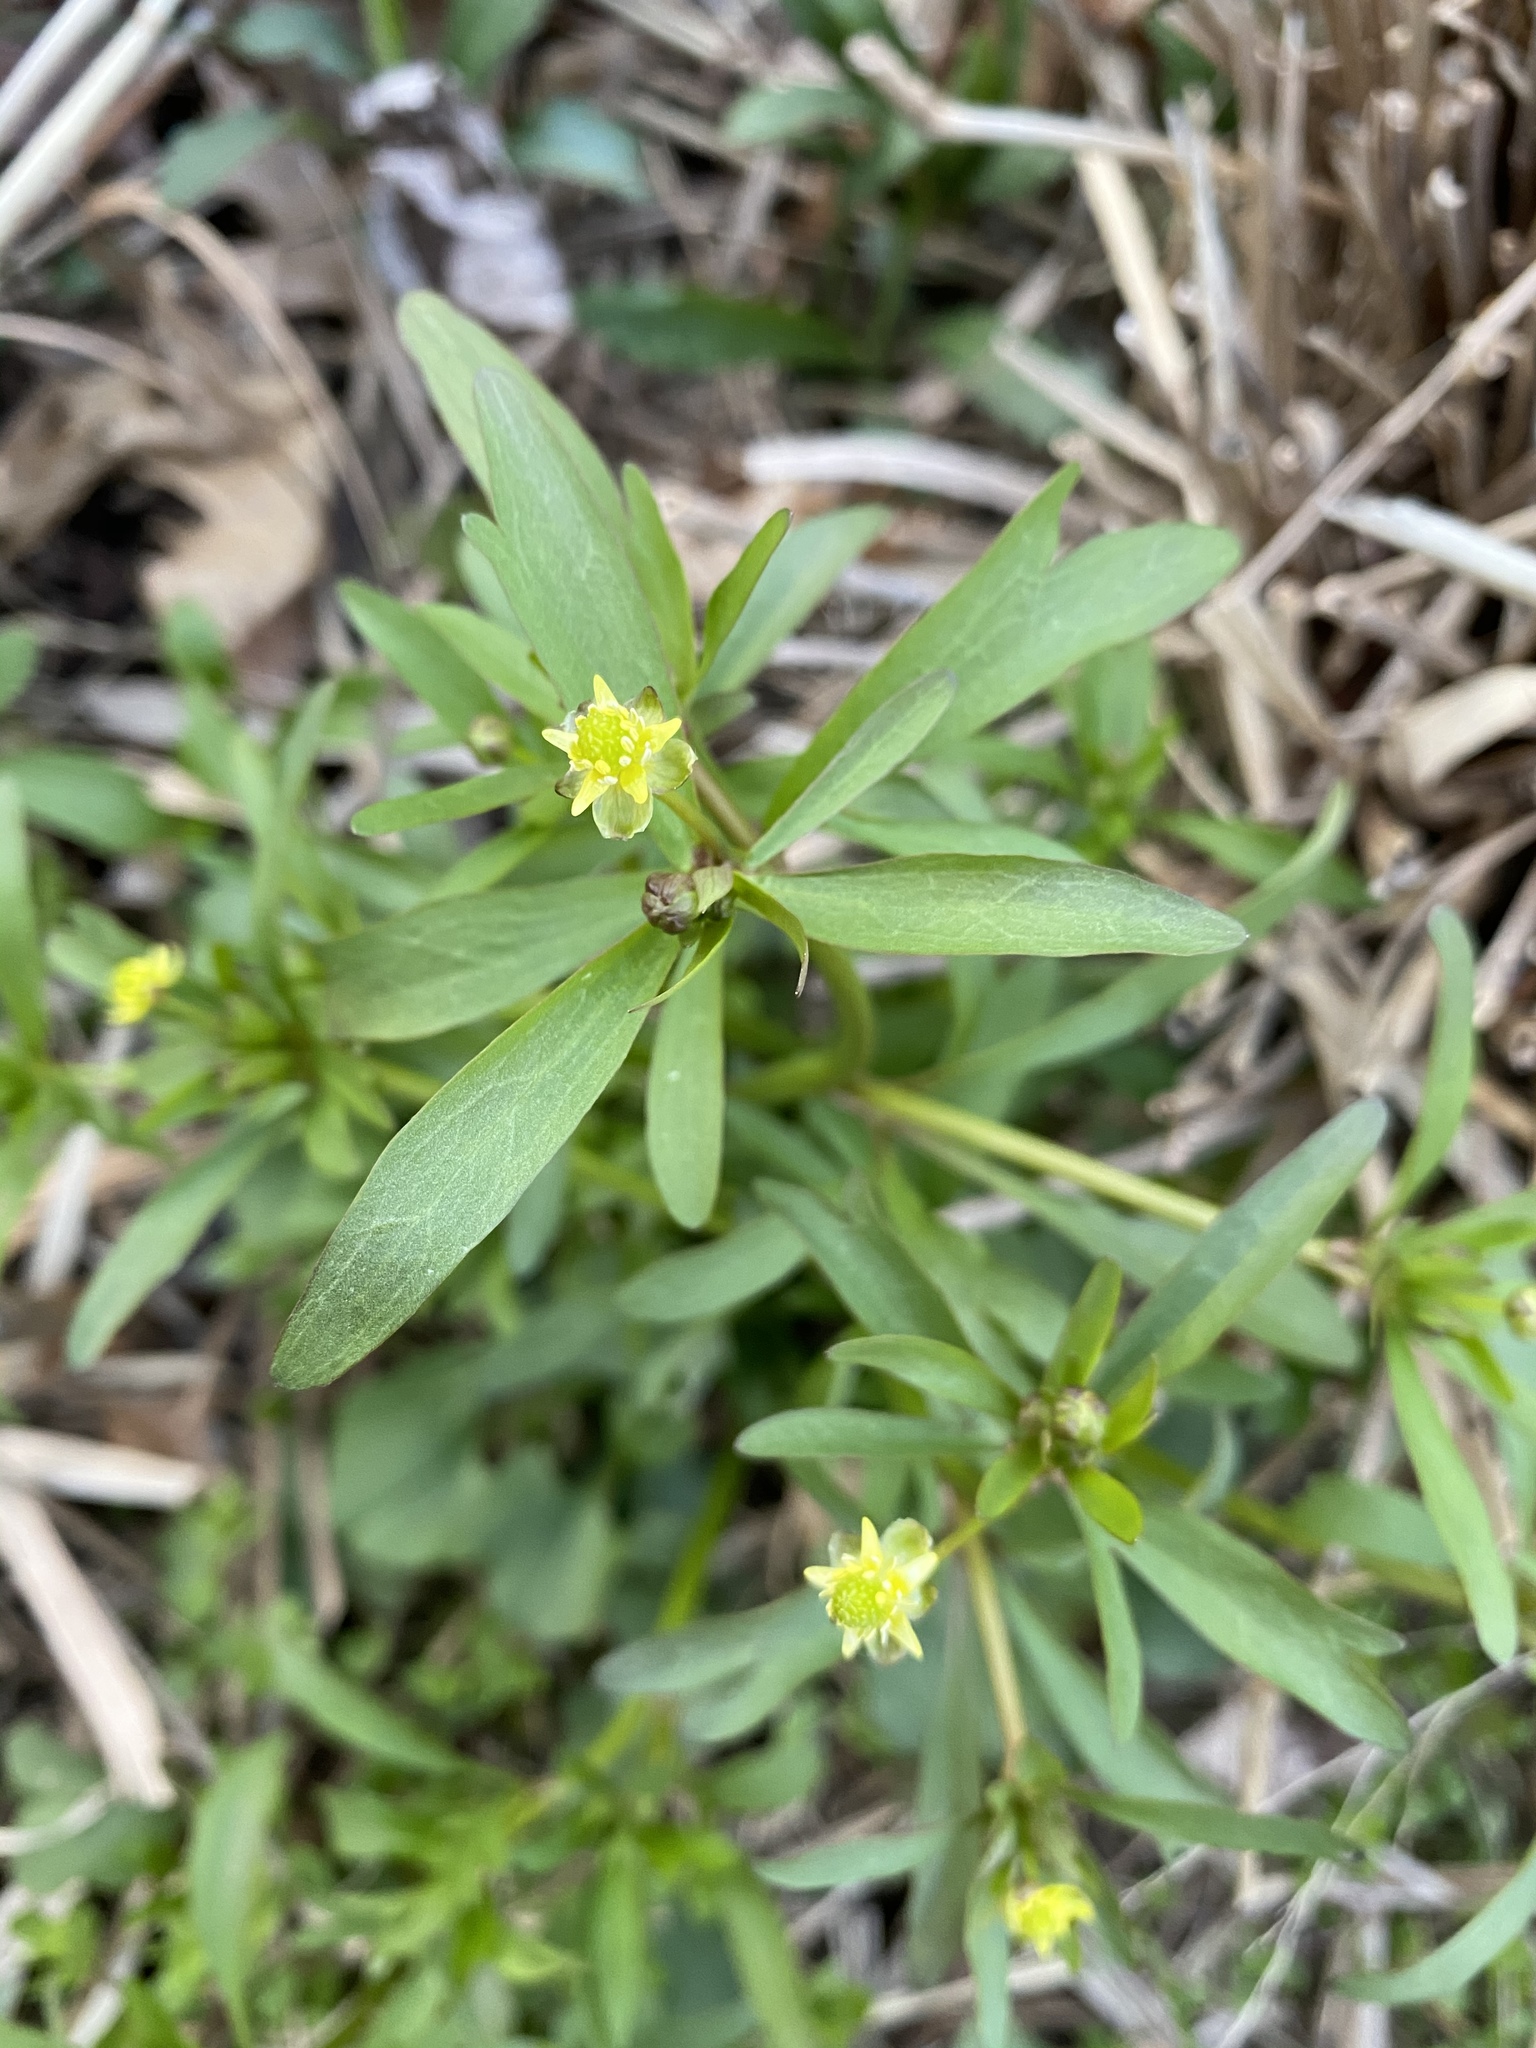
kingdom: Plantae
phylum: Tracheophyta
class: Magnoliopsida
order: Ranunculales
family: Ranunculaceae
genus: Ranunculus
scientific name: Ranunculus abortivus
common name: Early wood buttercup
